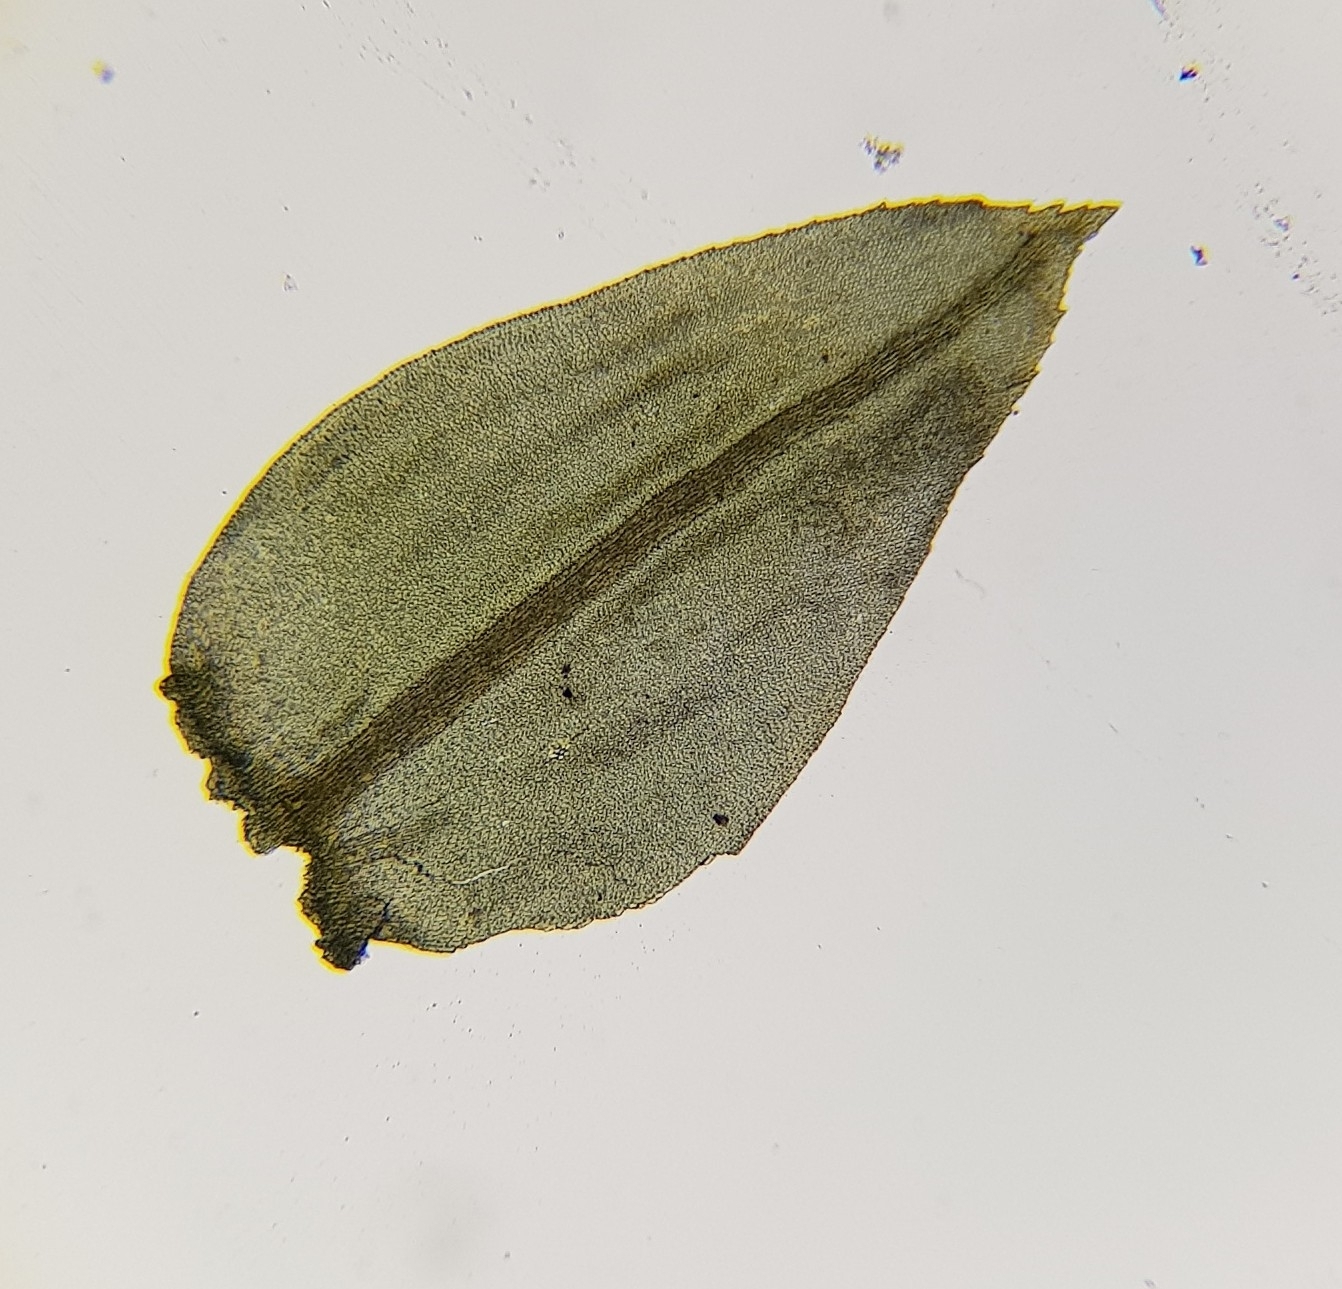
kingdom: Plantae
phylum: Bryophyta
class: Bryopsida
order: Hypnales
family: Neckeraceae
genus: Thamnobryum
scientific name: Thamnobryum alopecurum
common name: Fox-tail feather-moss
